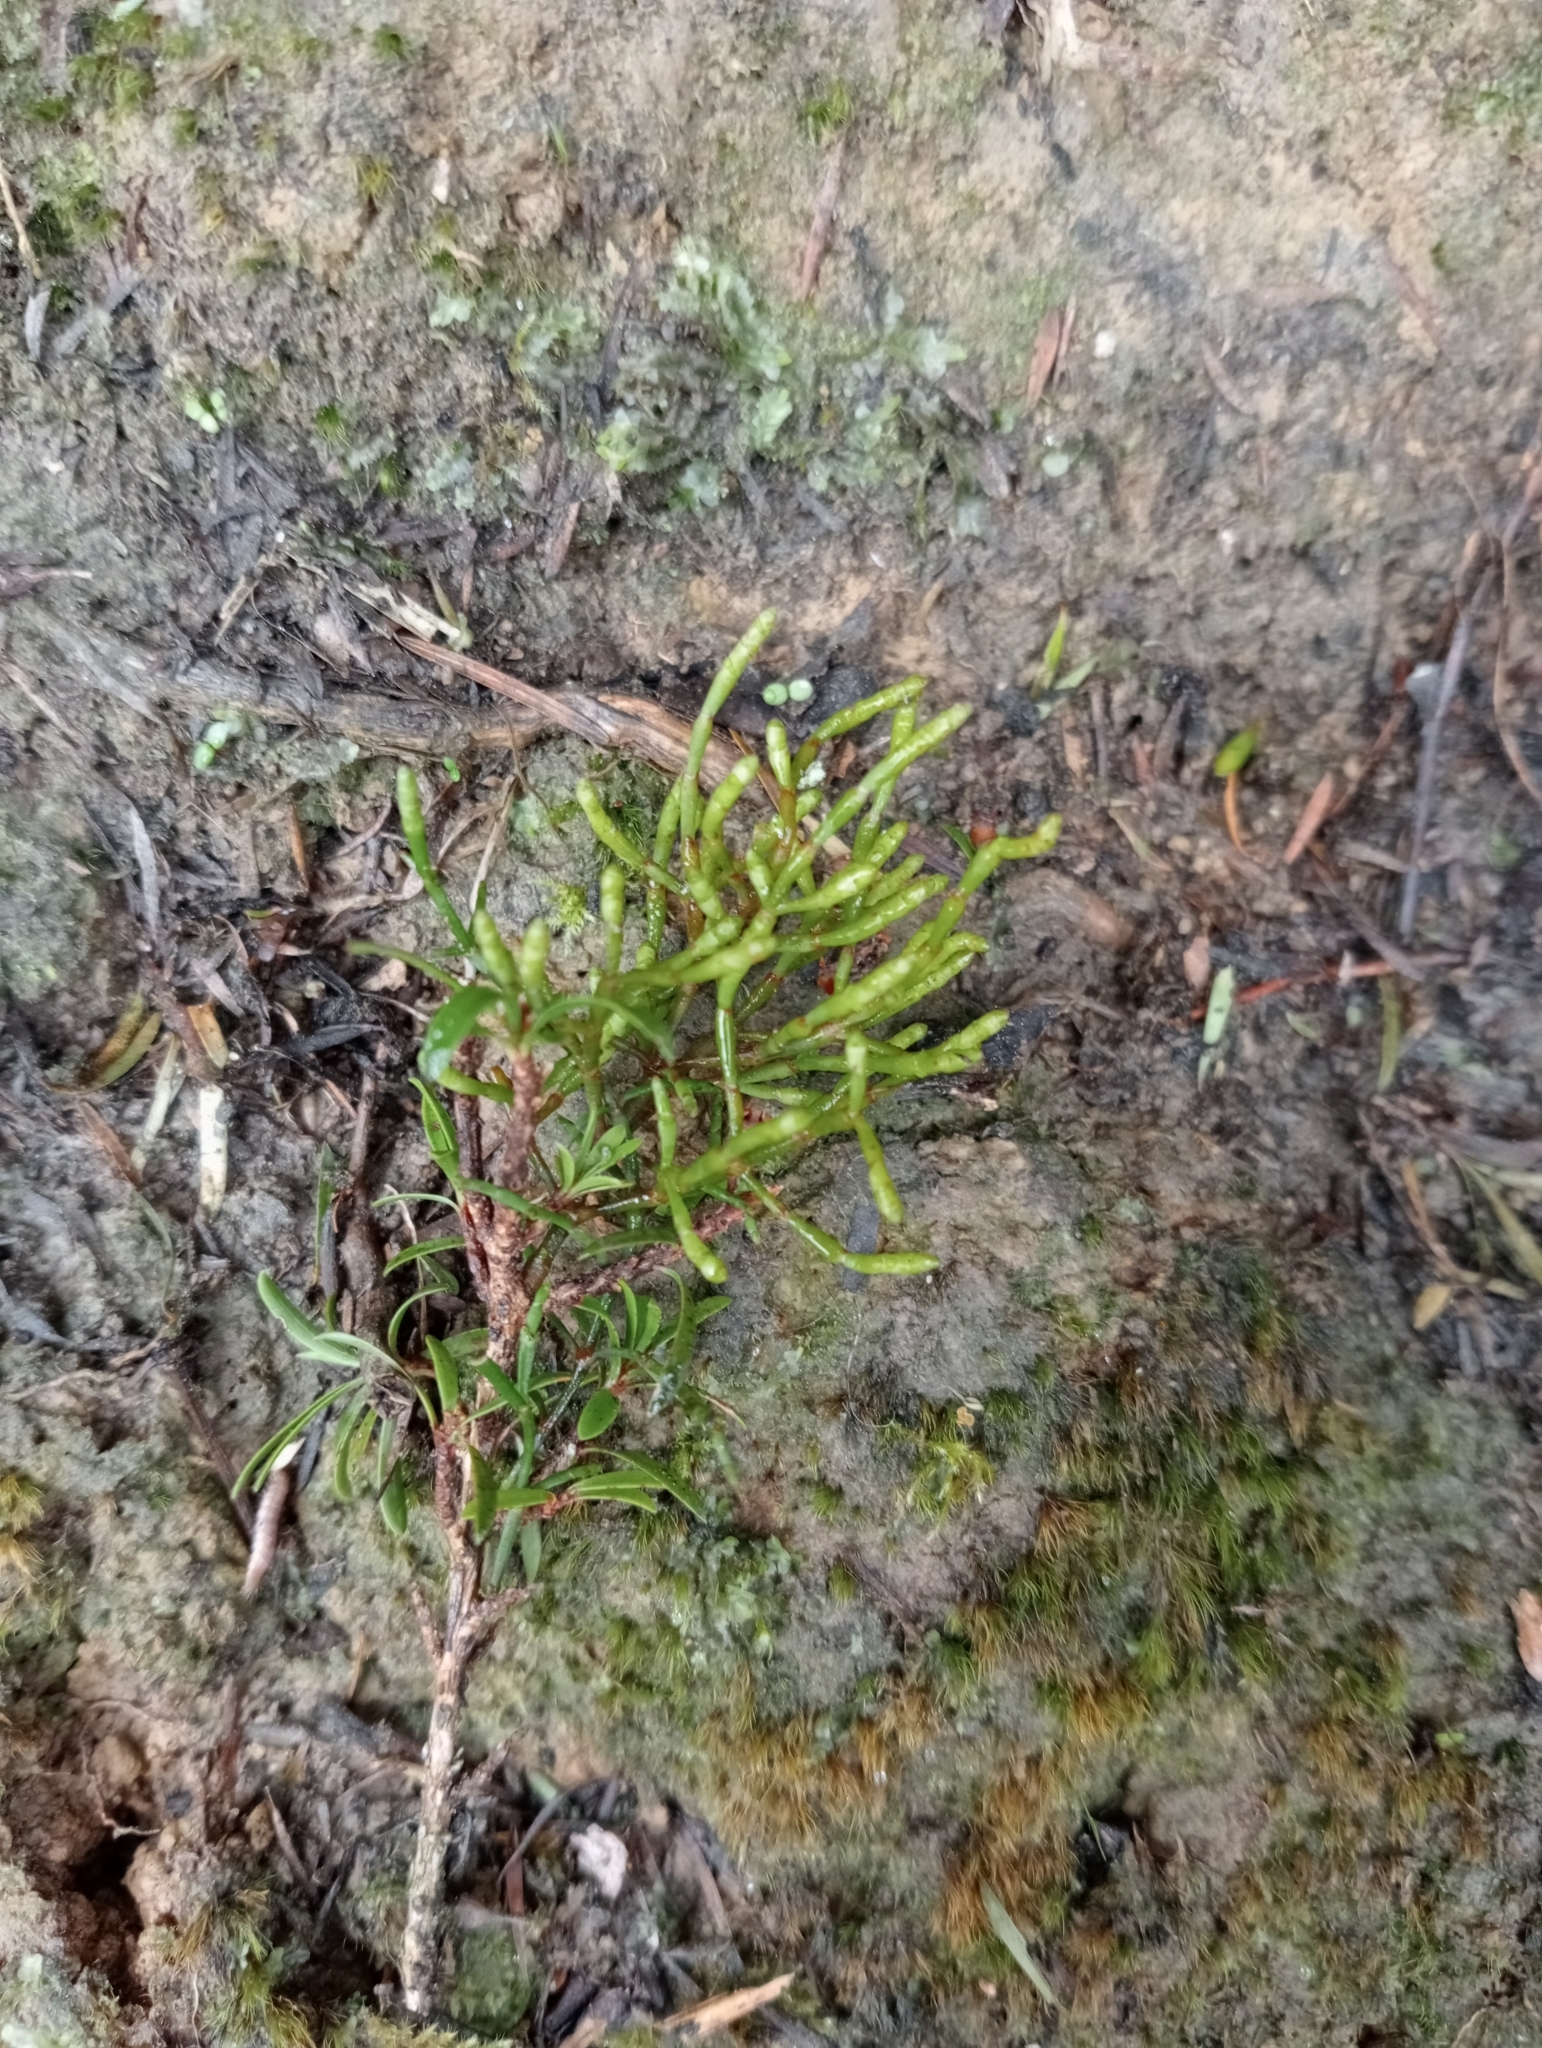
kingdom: Plantae
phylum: Tracheophyta
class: Magnoliopsida
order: Santalales
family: Viscaceae
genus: Korthalsella
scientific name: Korthalsella salicornioides
